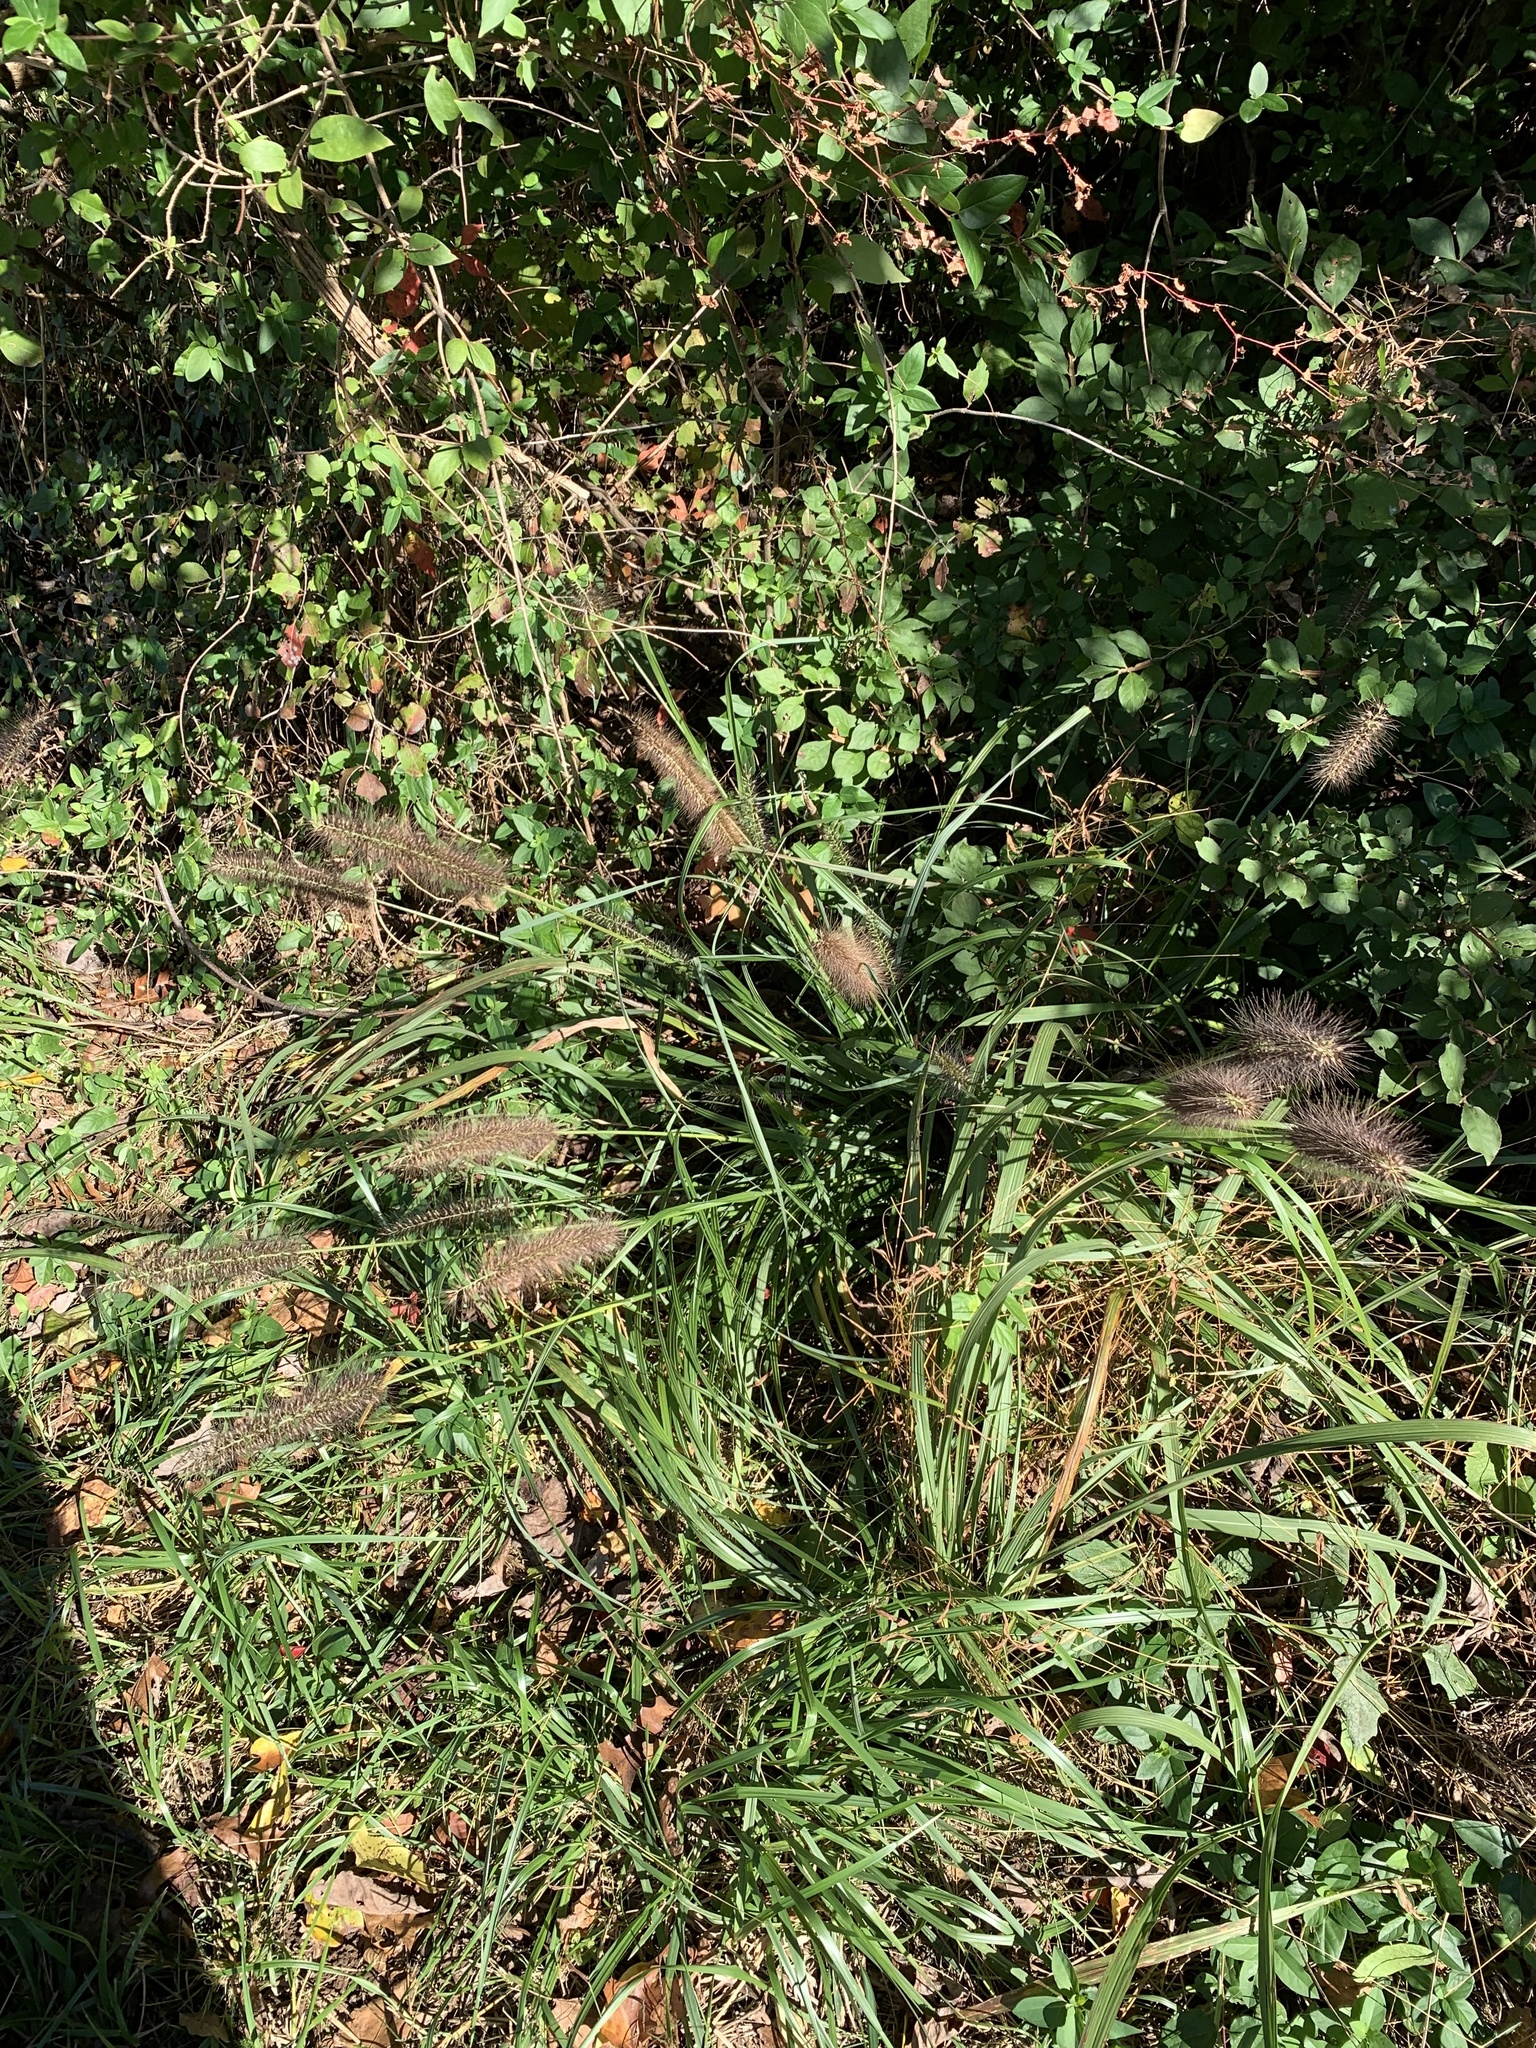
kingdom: Plantae
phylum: Tracheophyta
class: Liliopsida
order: Poales
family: Poaceae
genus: Cenchrus
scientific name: Cenchrus alopecuroides
